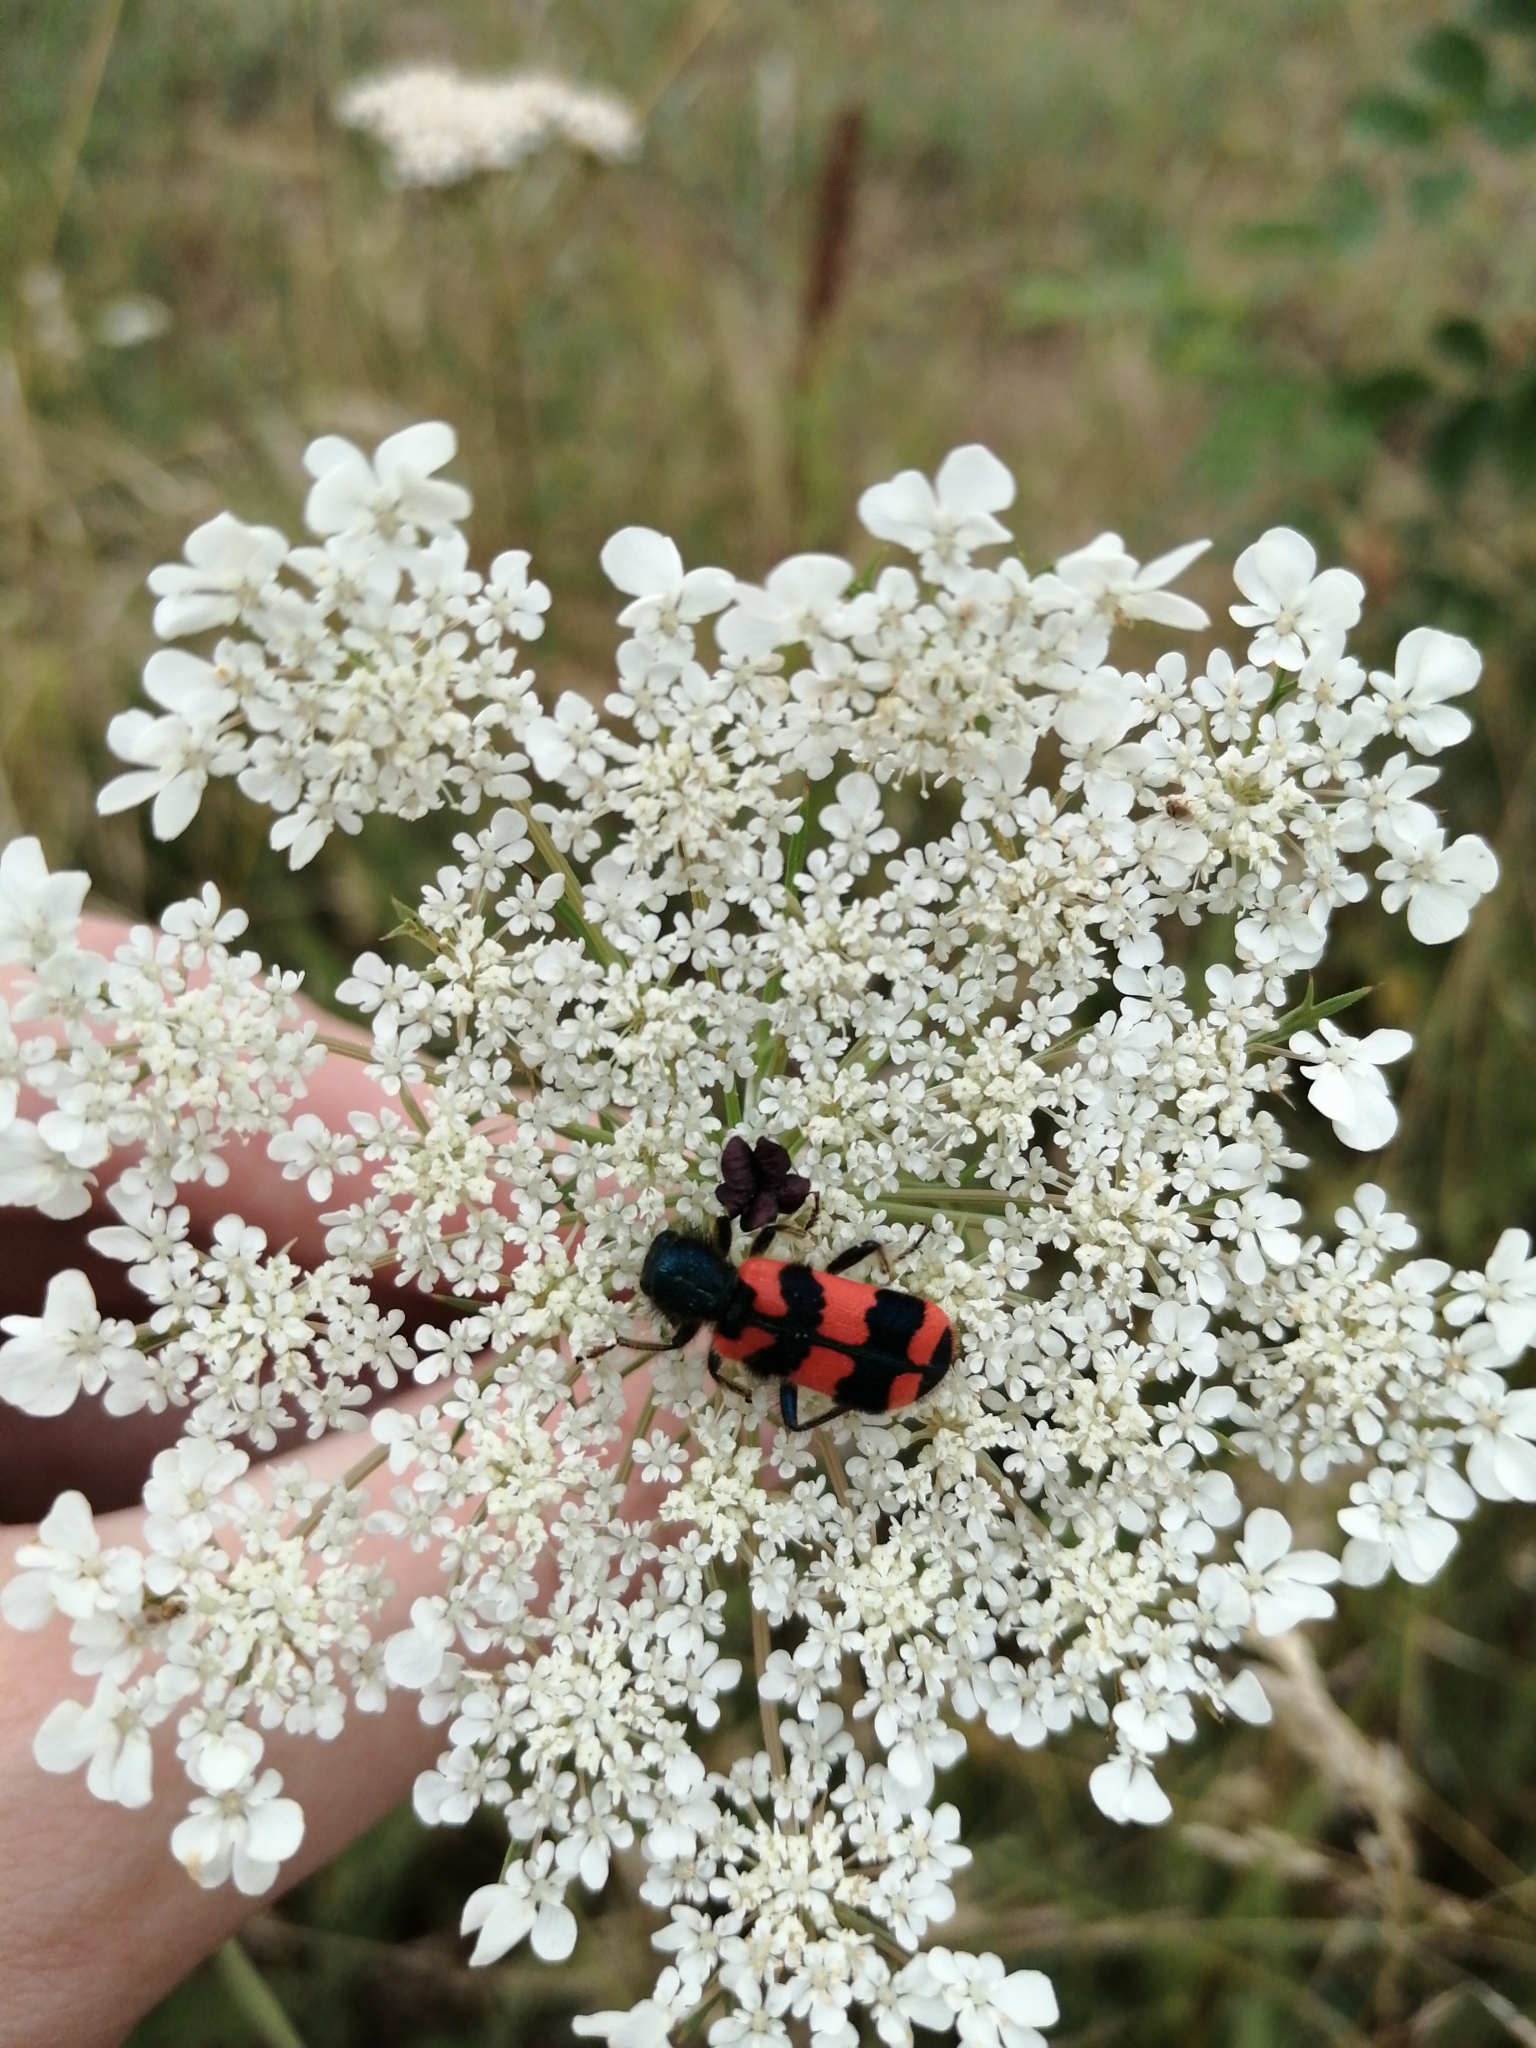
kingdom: Animalia
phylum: Arthropoda
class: Insecta
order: Coleoptera
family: Cleridae
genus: Trichodes
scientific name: Trichodes alvearius
